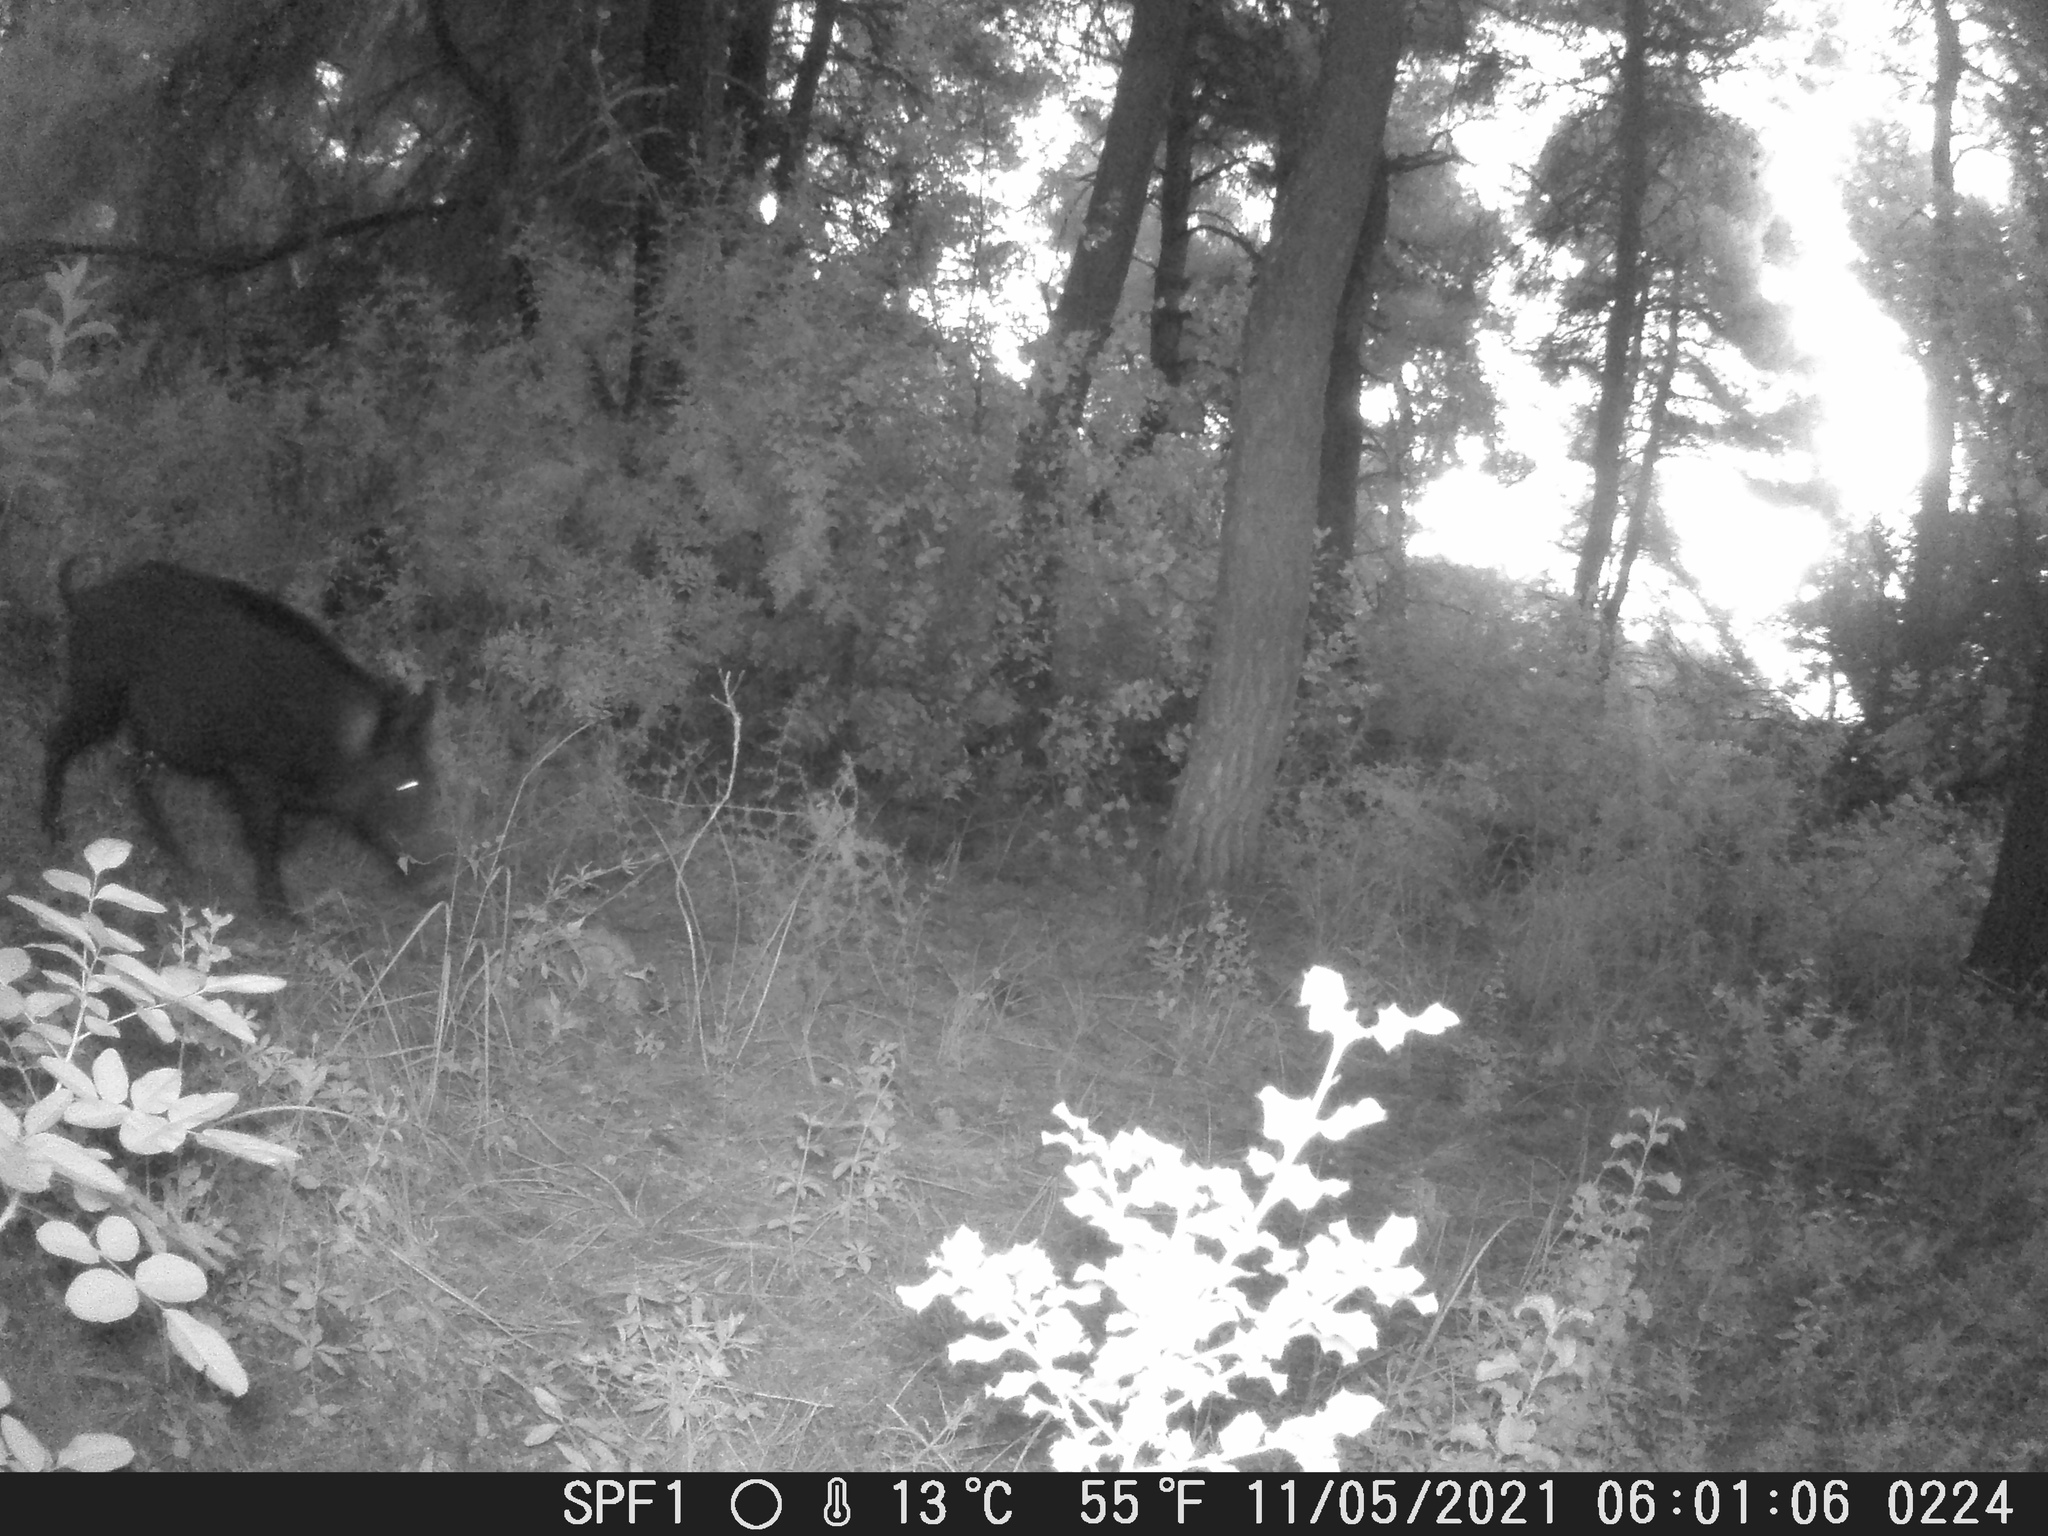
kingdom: Animalia
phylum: Chordata
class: Mammalia
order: Artiodactyla
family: Suidae
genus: Sus
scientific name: Sus scrofa
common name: Wild boar
